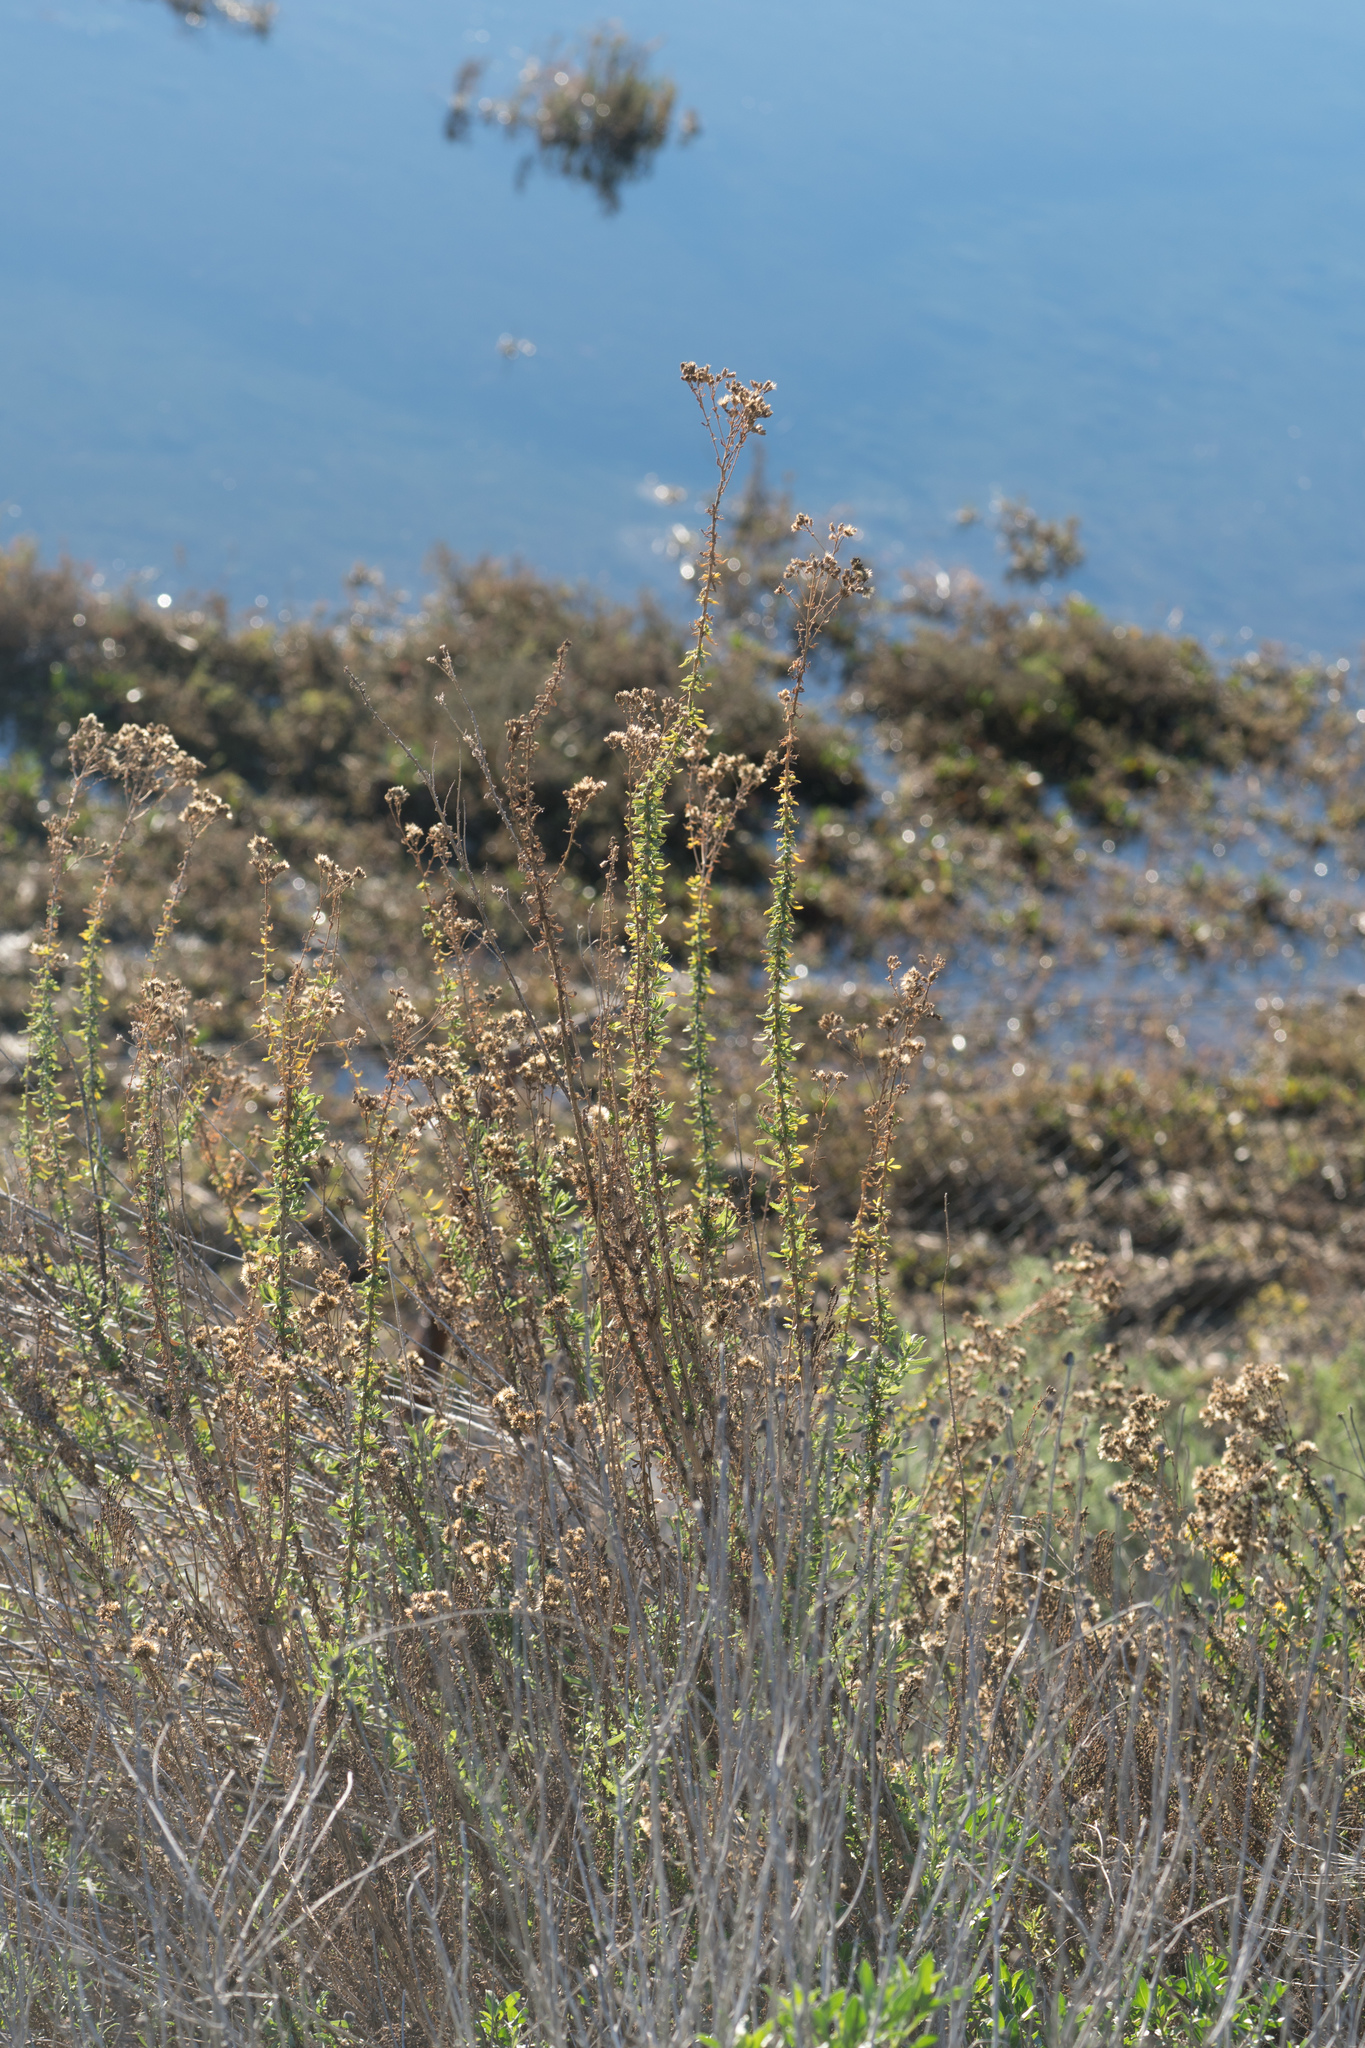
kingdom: Plantae
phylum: Tracheophyta
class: Magnoliopsida
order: Asterales
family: Asteraceae
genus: Isocoma
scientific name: Isocoma menziesii
